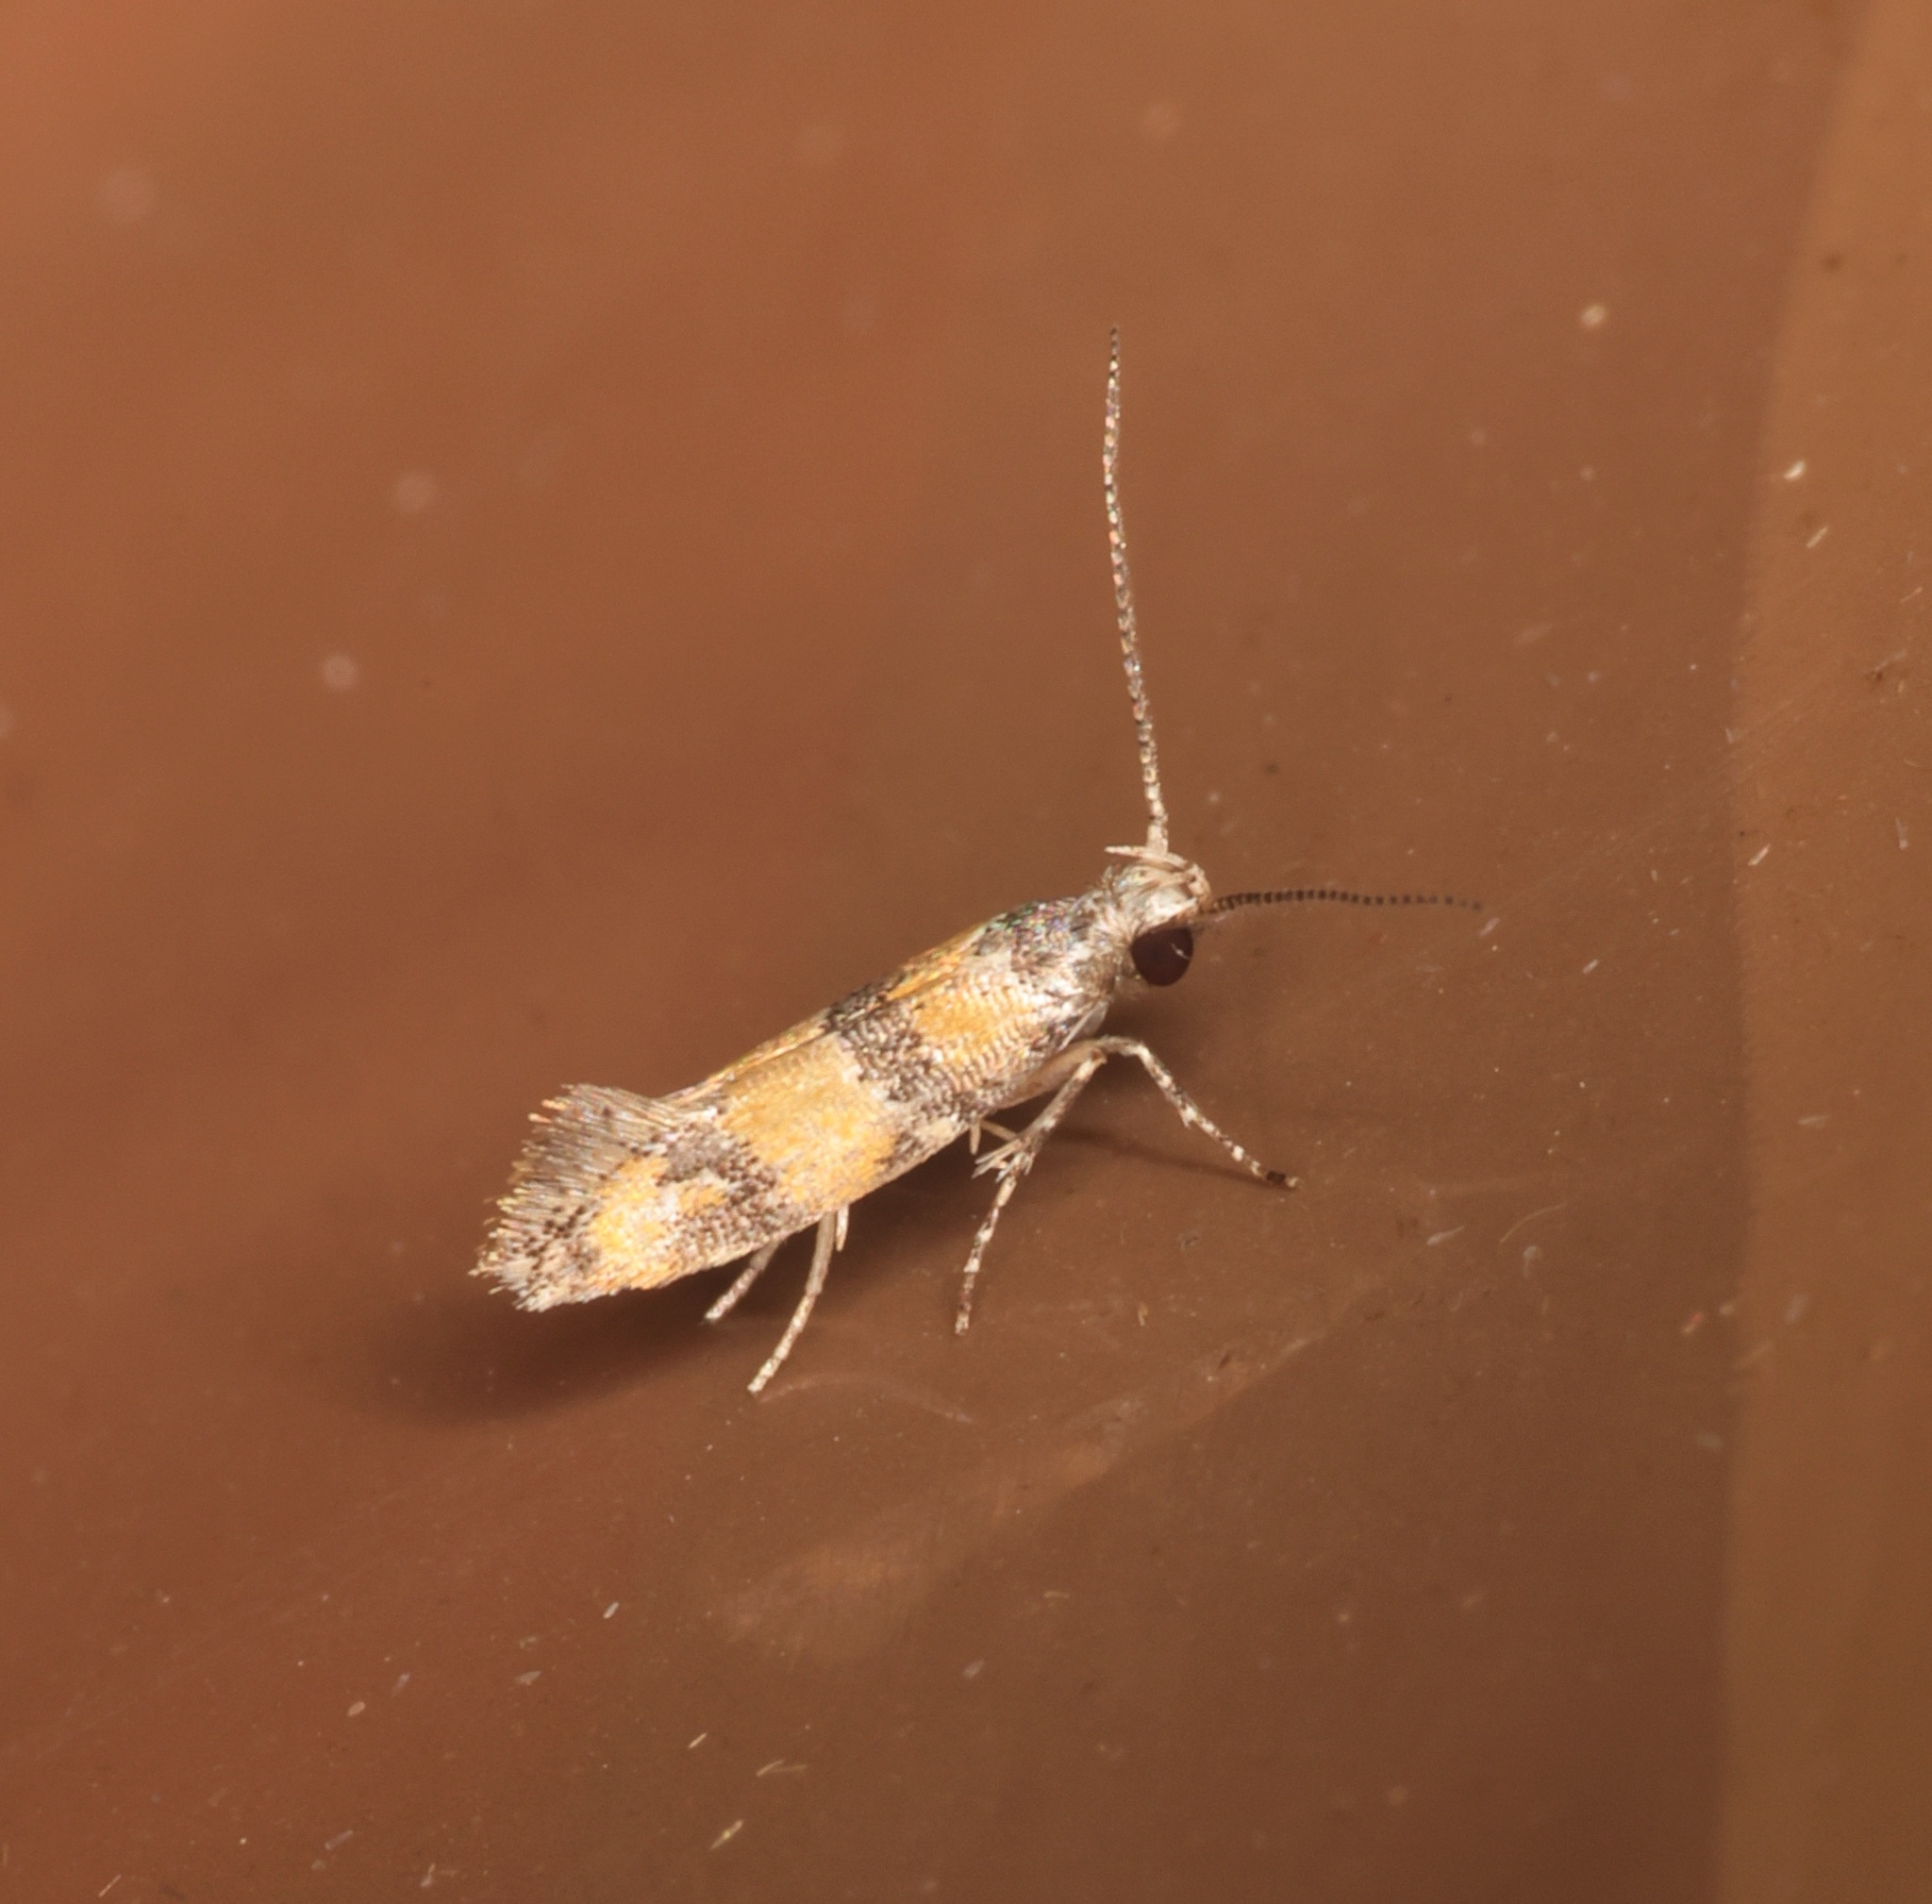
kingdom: Animalia
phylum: Arthropoda
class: Insecta
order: Lepidoptera
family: Oecophoridae
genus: Promalactis
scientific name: Promalactis lobatifera
